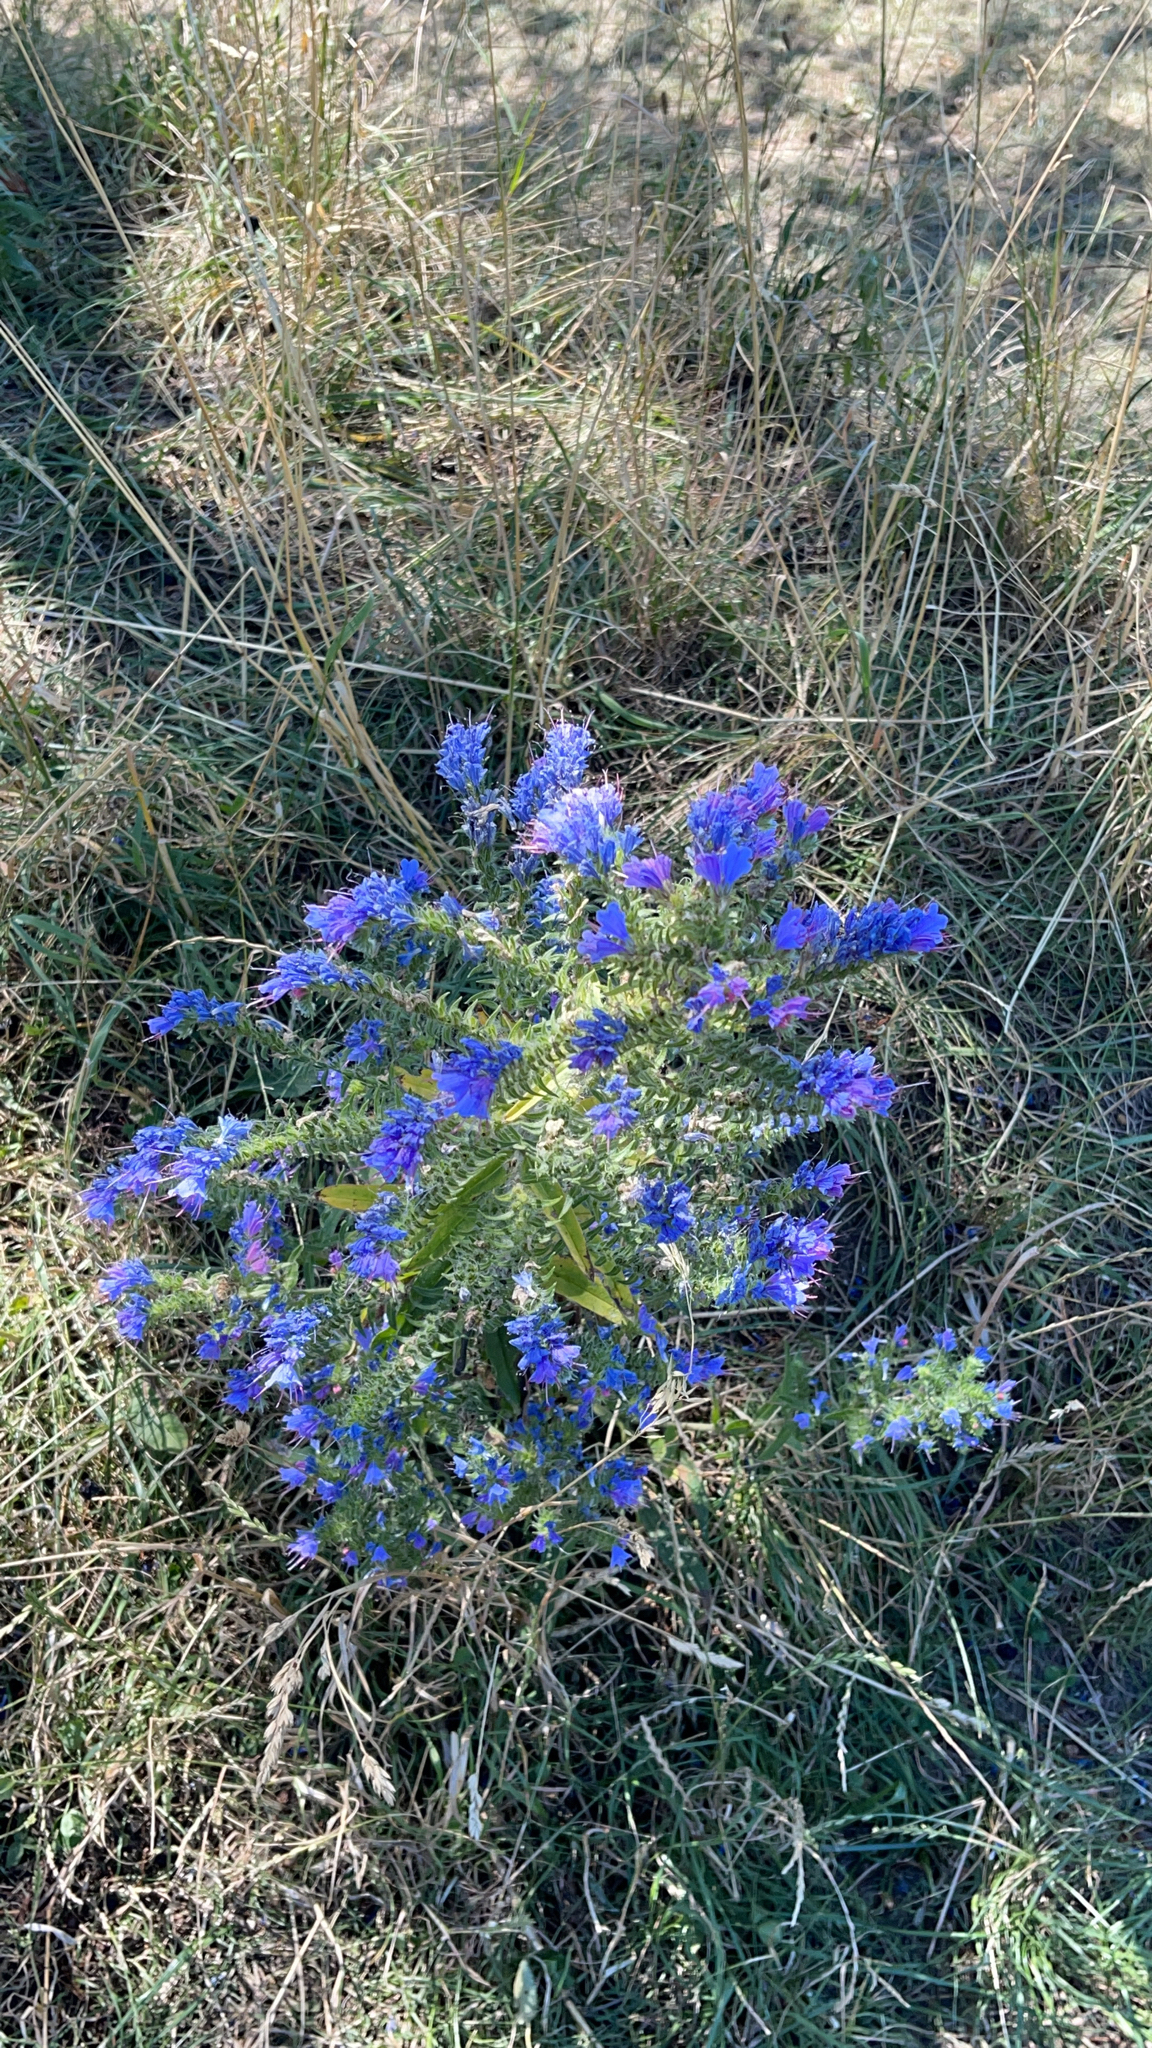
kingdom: Plantae
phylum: Tracheophyta
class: Magnoliopsida
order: Boraginales
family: Boraginaceae
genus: Echium
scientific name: Echium vulgare
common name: Common viper's bugloss
